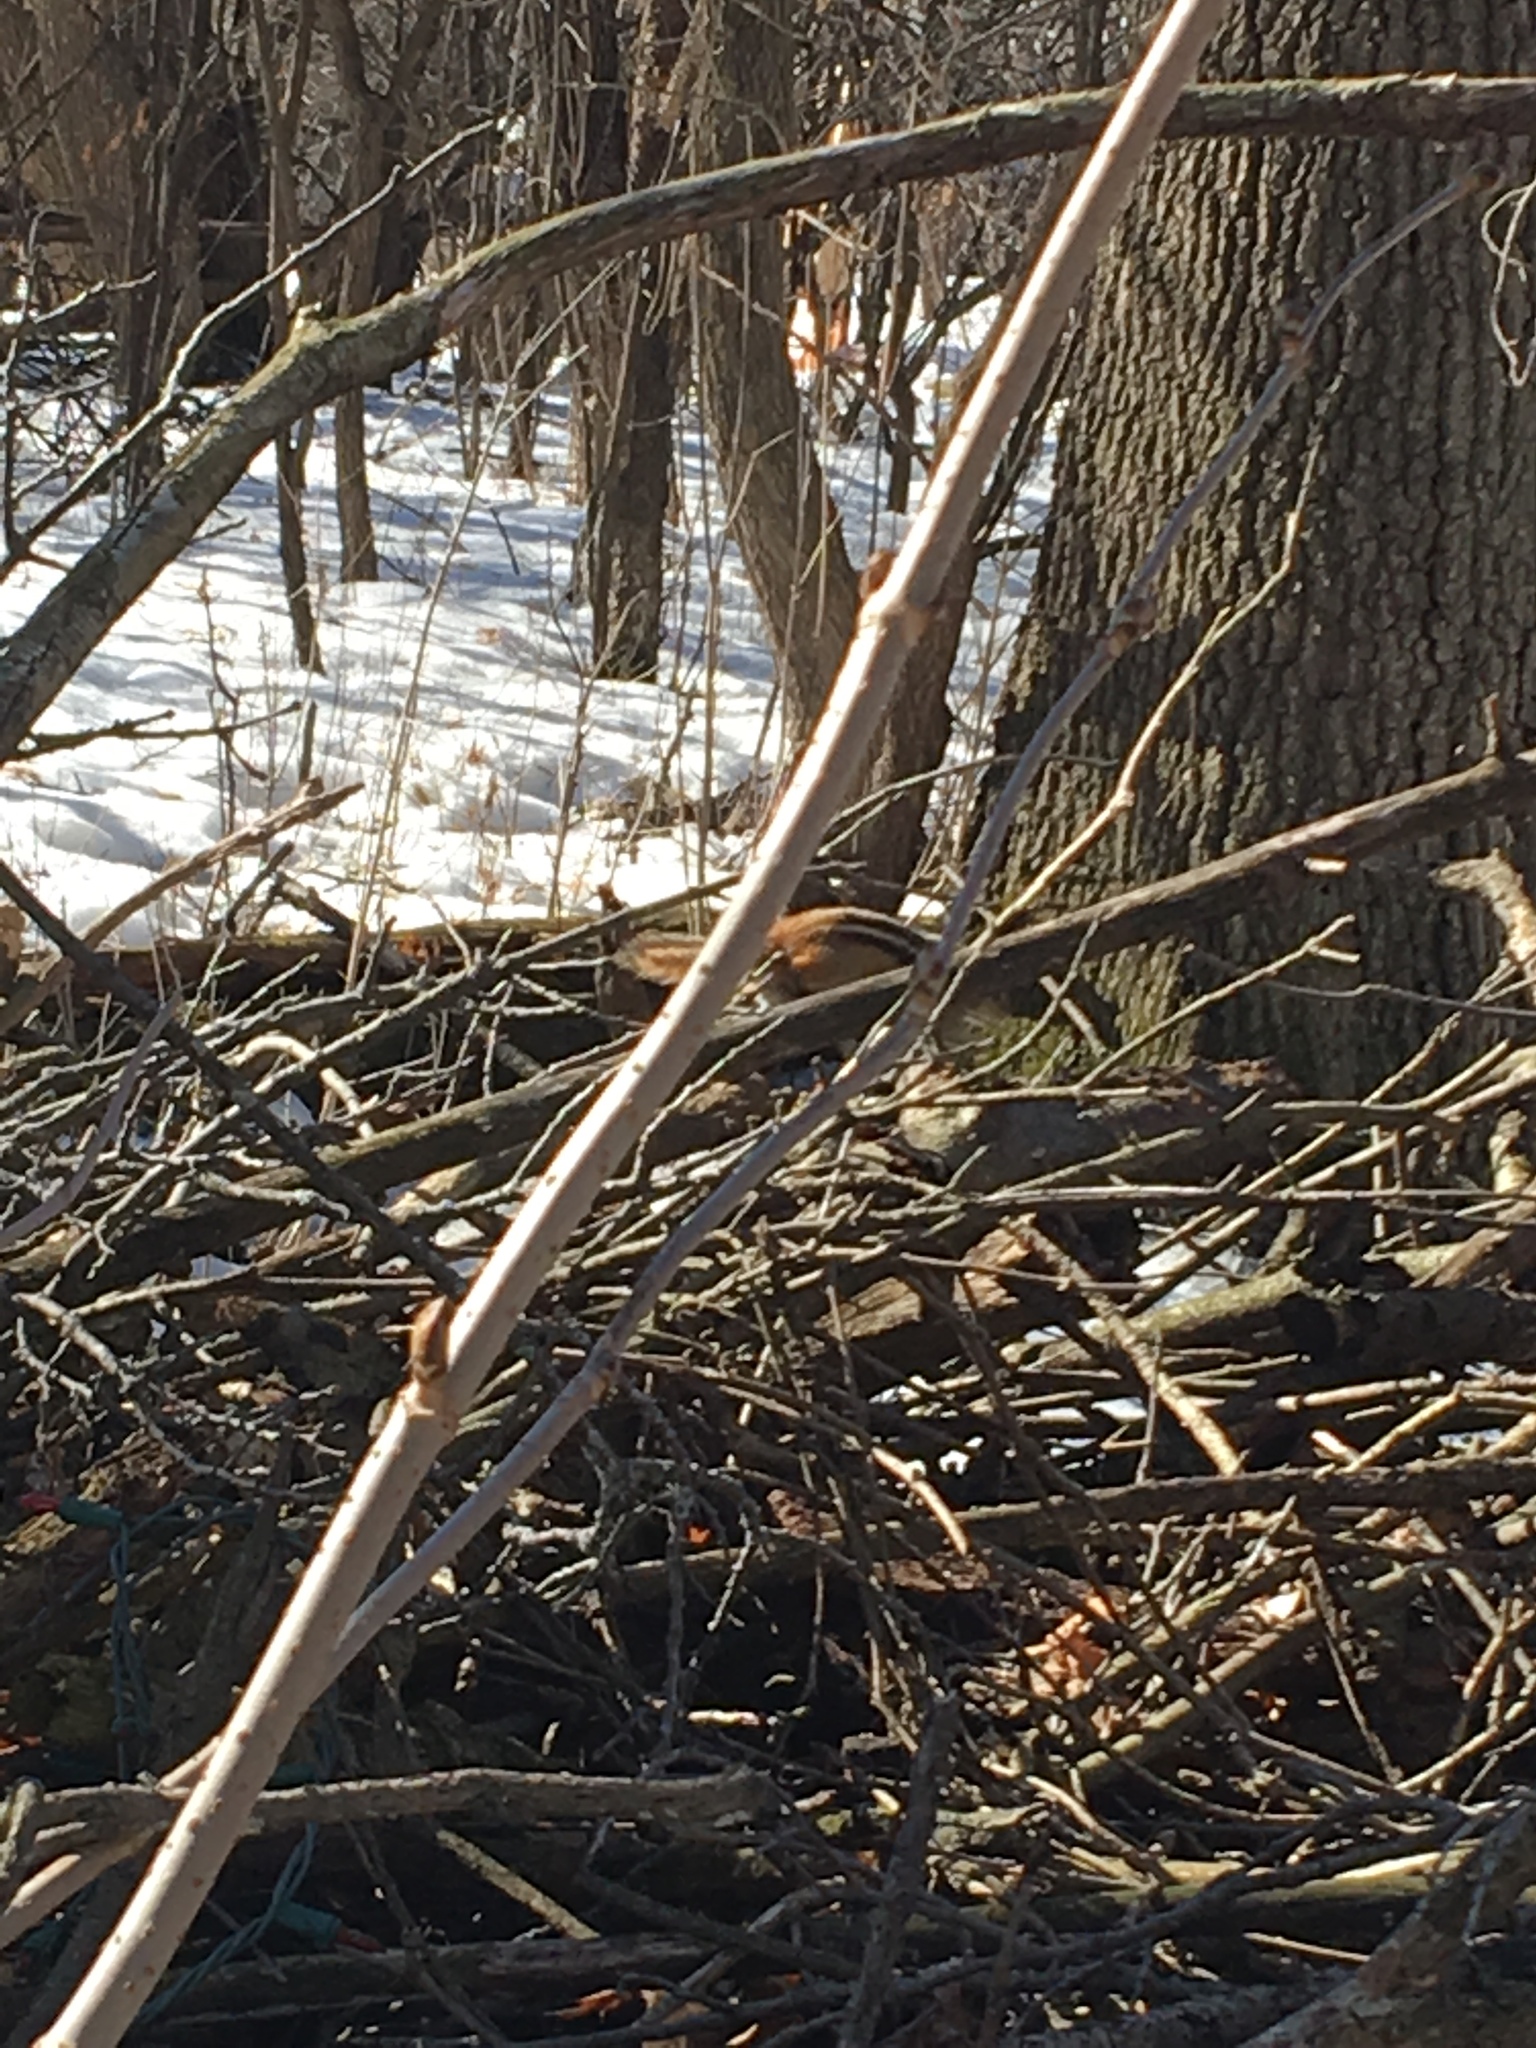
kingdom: Animalia
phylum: Chordata
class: Mammalia
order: Rodentia
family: Sciuridae
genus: Tamias
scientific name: Tamias striatus
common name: Eastern chipmunk
